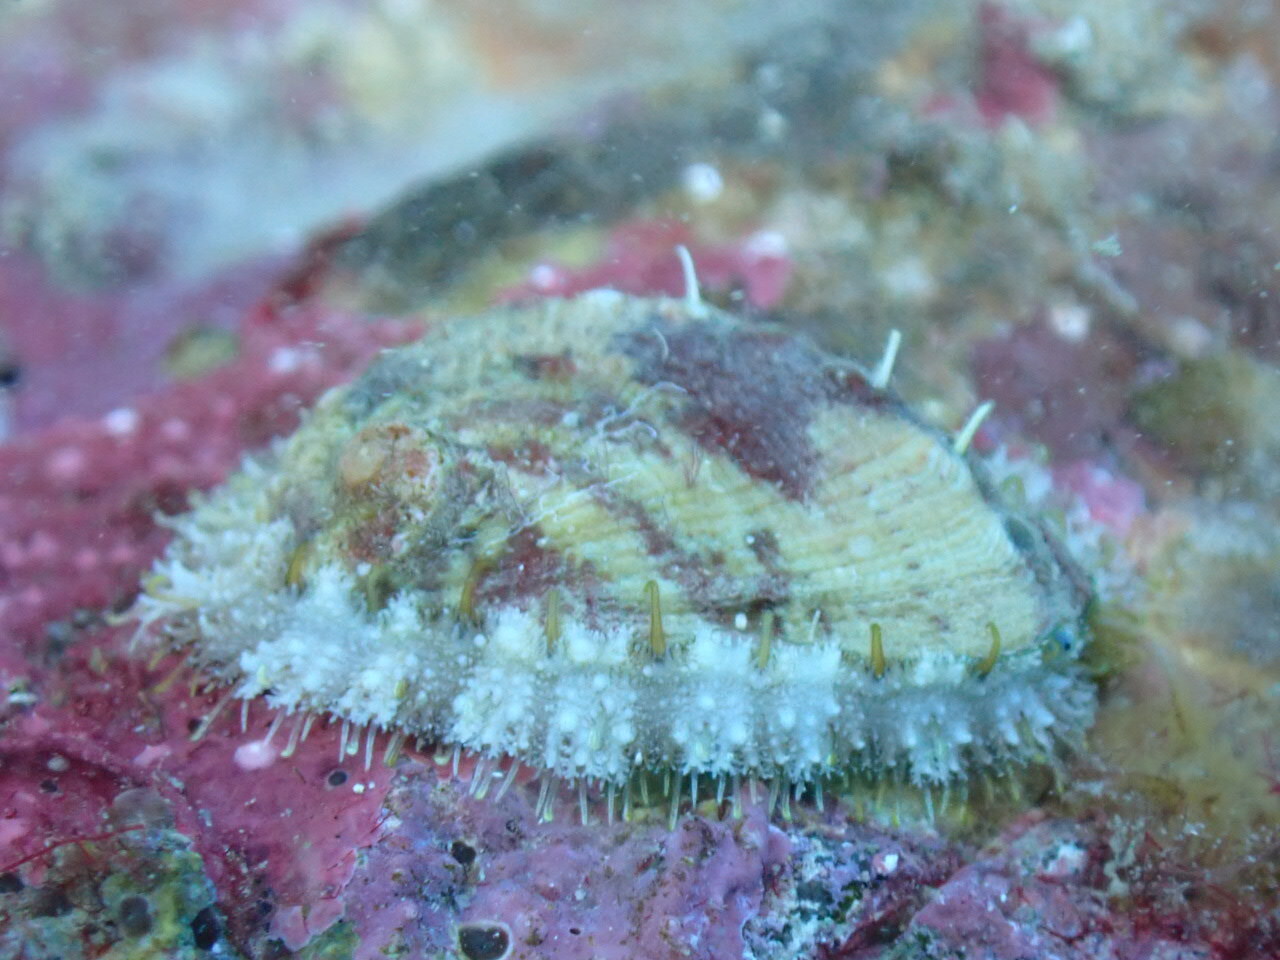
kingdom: Animalia
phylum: Mollusca
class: Gastropoda
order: Lepetellida
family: Haliotidae
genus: Haliotis
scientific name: Haliotis tuberculata
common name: Green ormer
